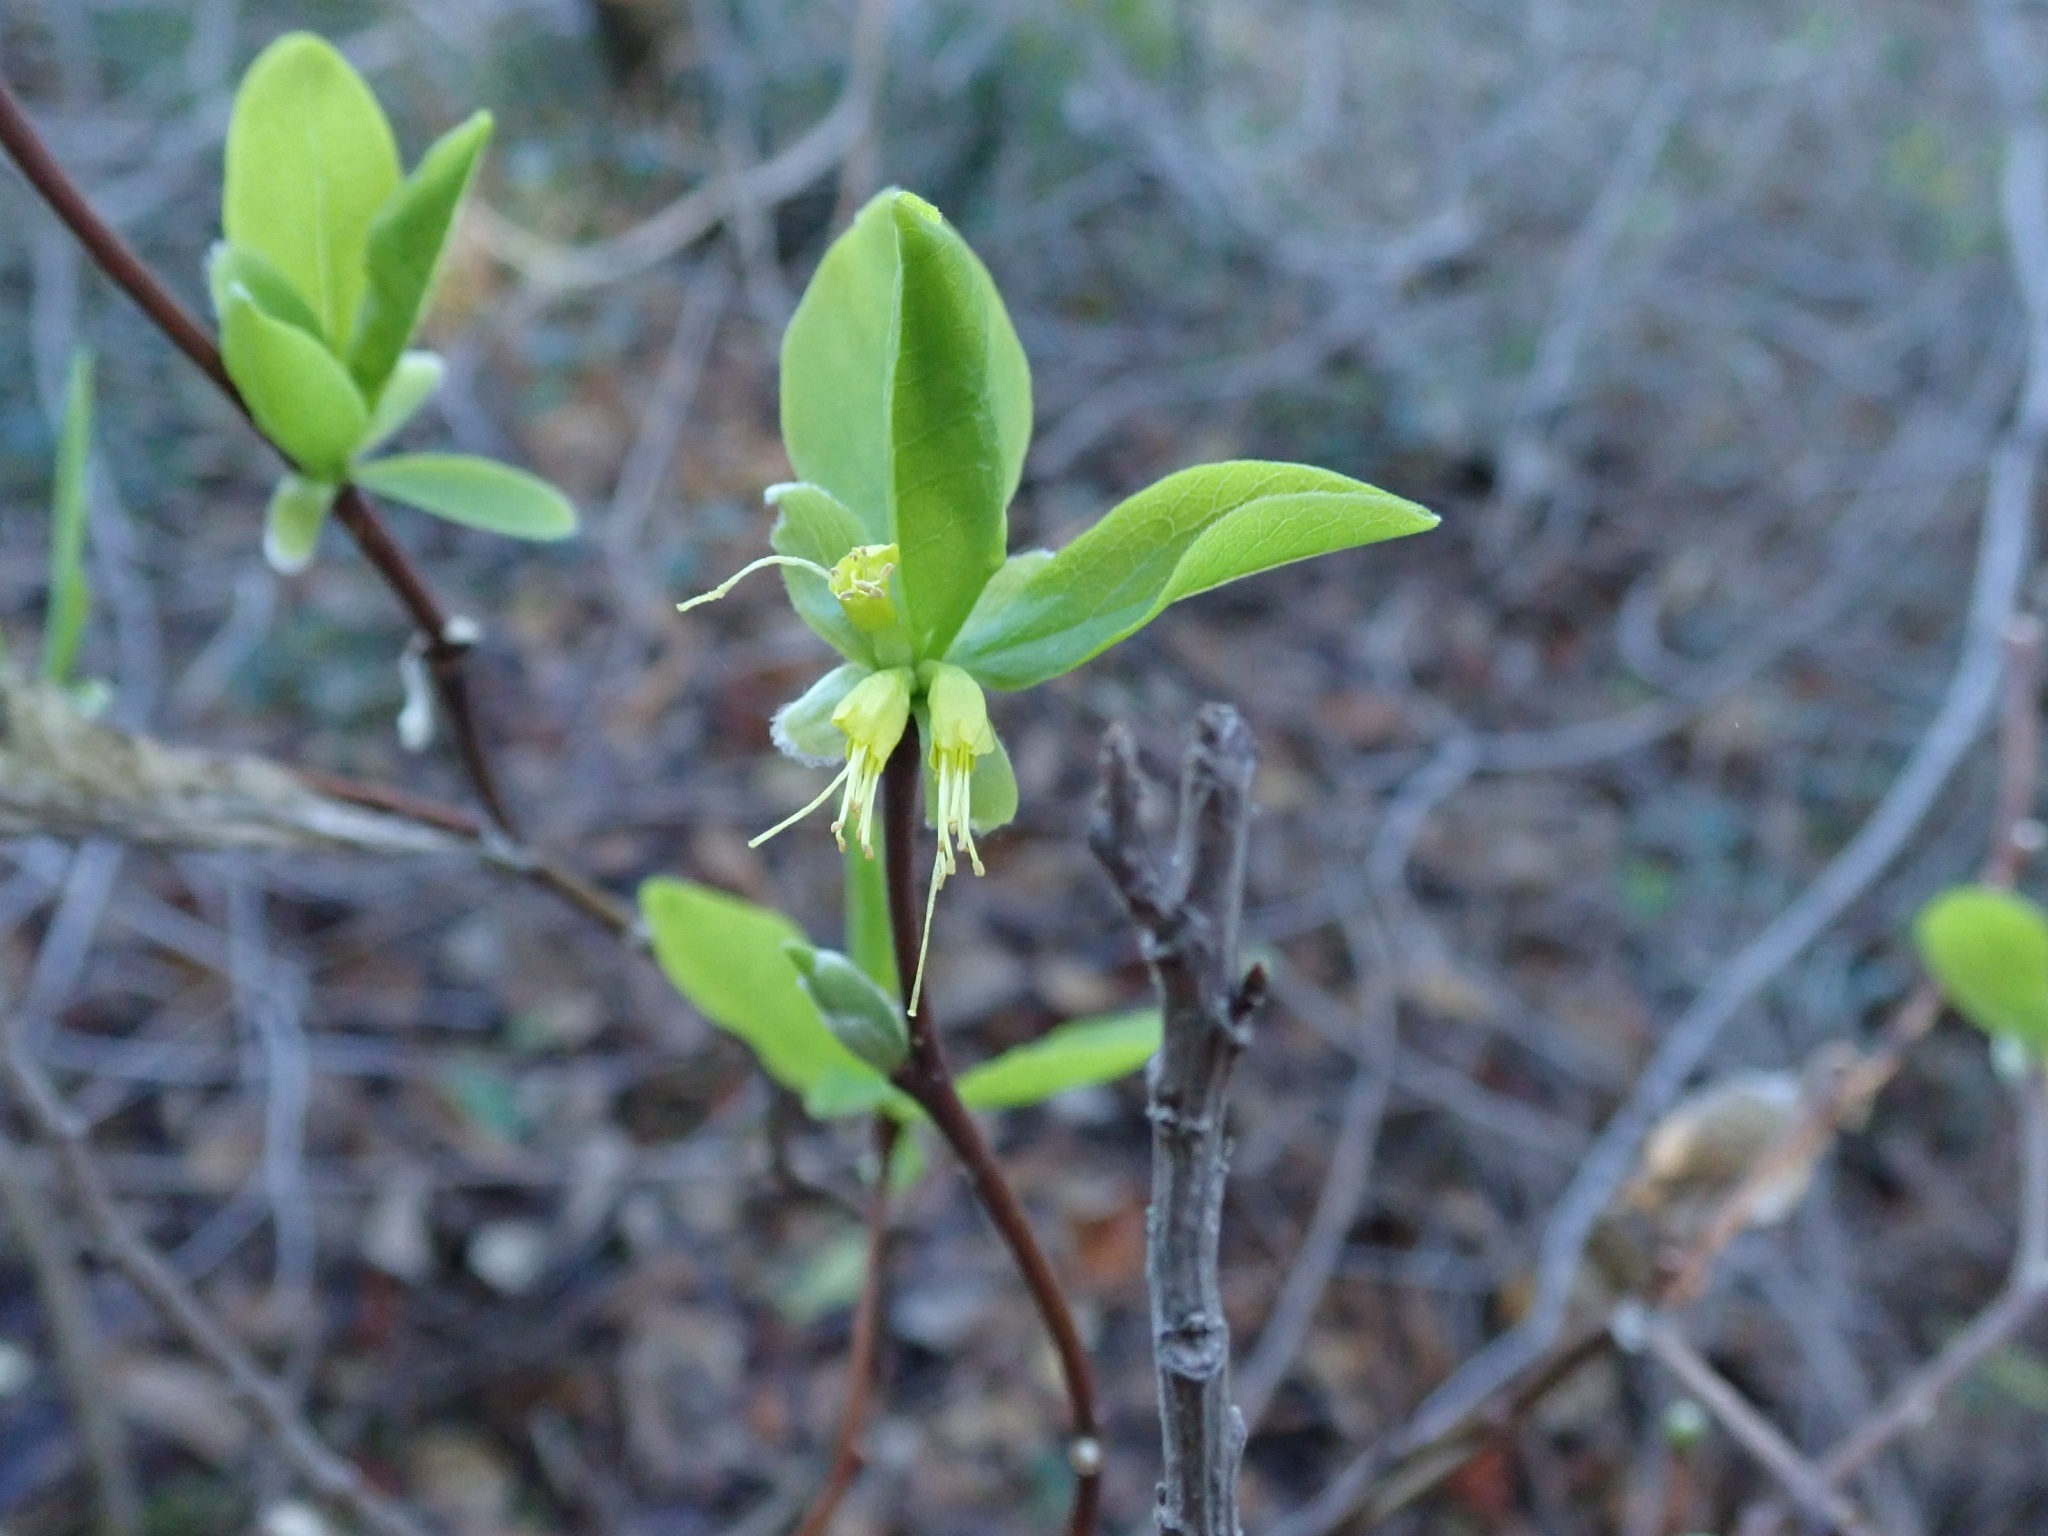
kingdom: Plantae
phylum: Tracheophyta
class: Magnoliopsida
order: Malvales
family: Thymelaeaceae
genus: Dirca
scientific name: Dirca occidentalis
